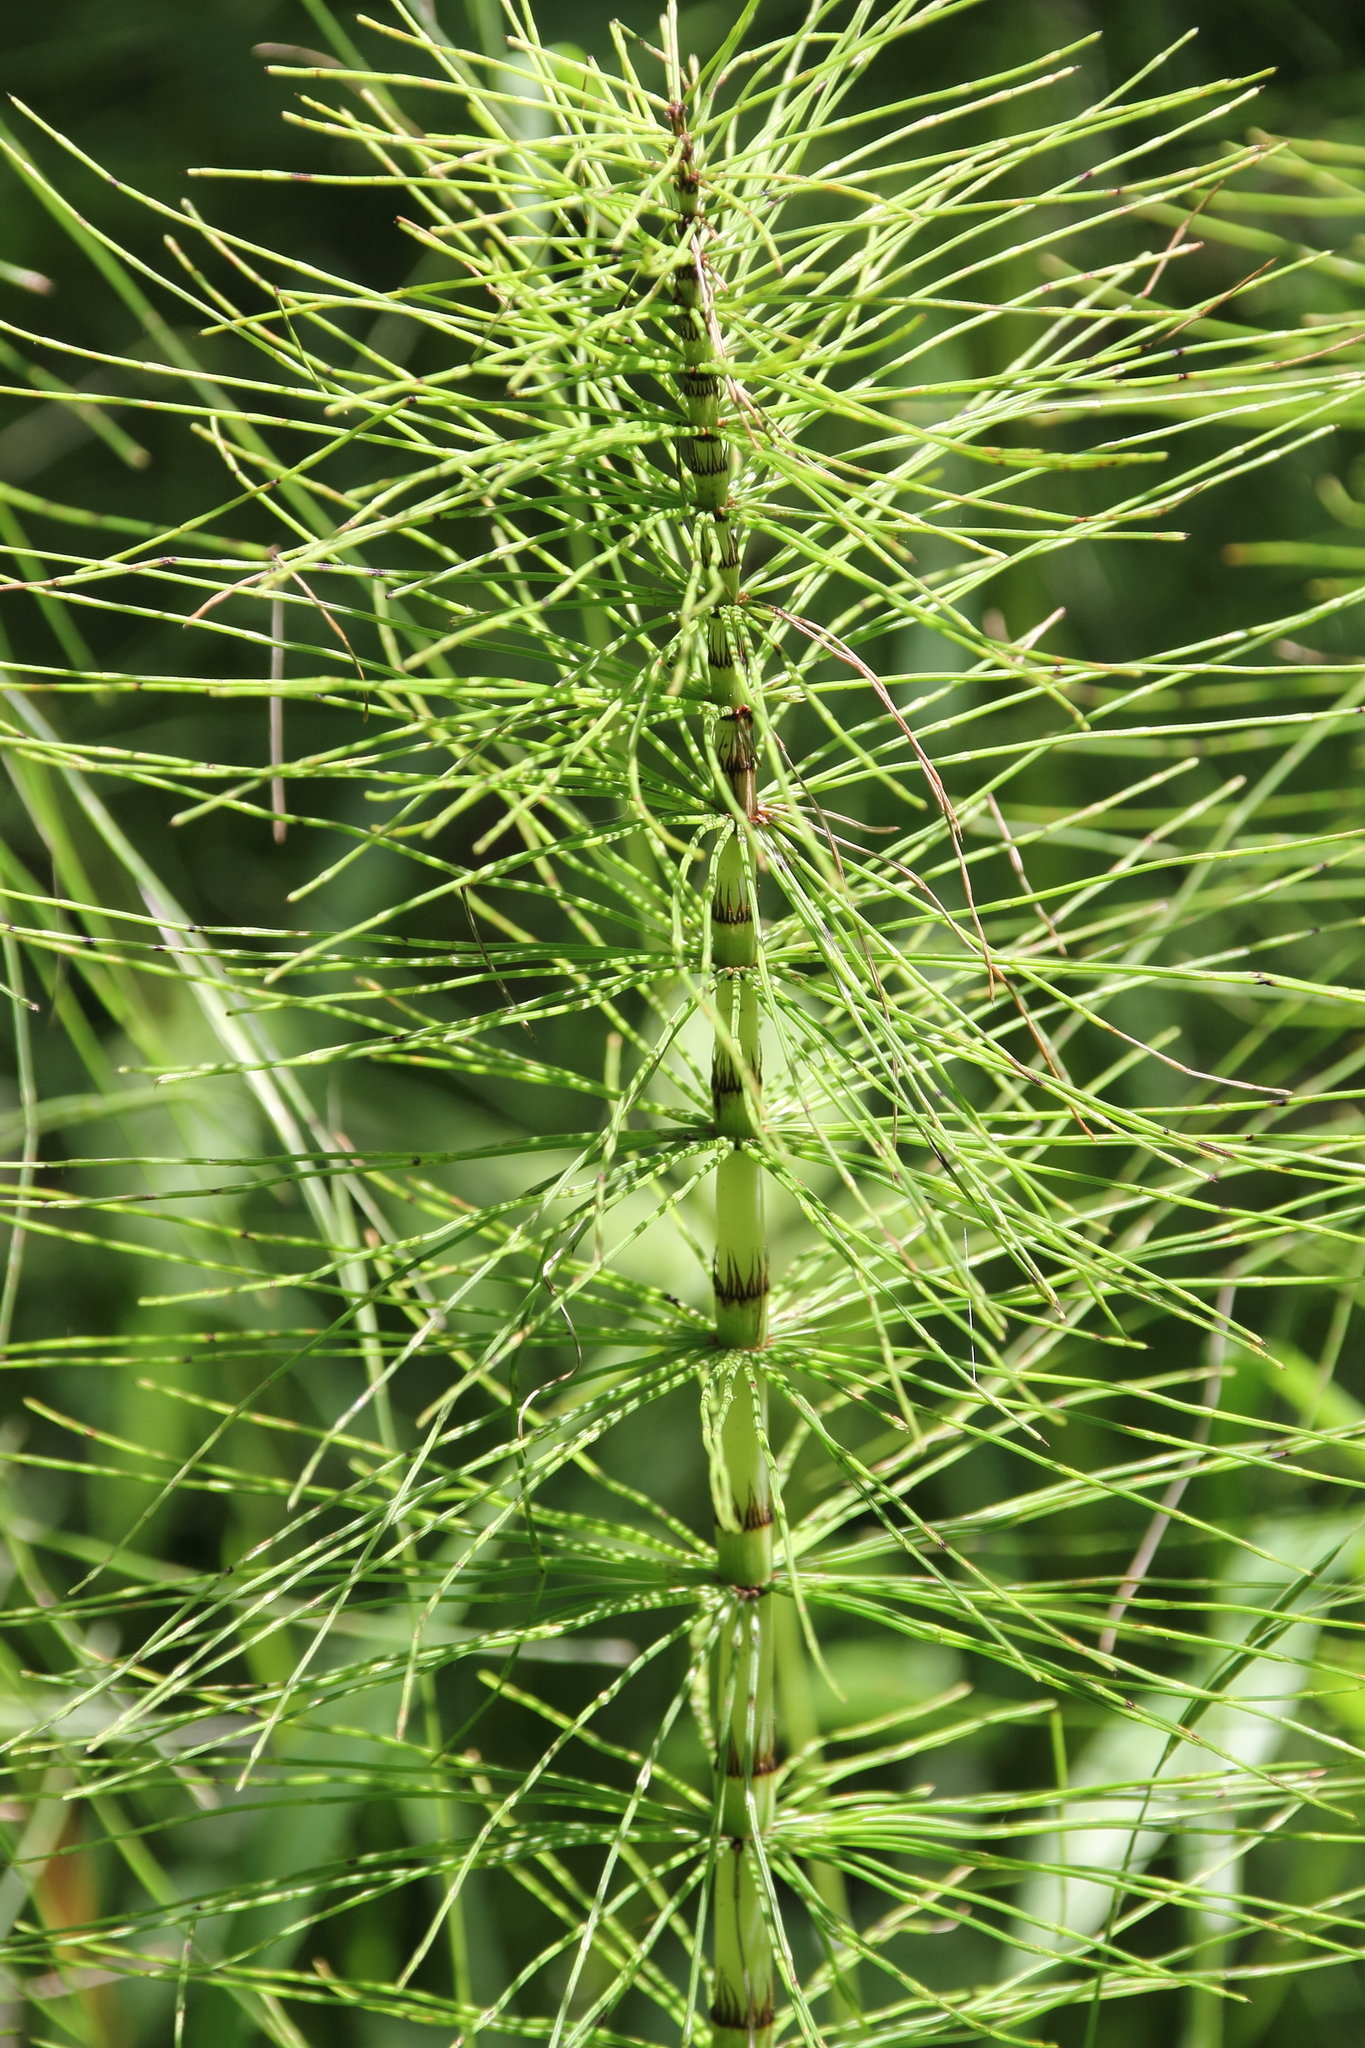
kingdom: Plantae
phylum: Tracheophyta
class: Polypodiopsida
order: Equisetales
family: Equisetaceae
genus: Equisetum
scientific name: Equisetum telmateia
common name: Great horsetail
